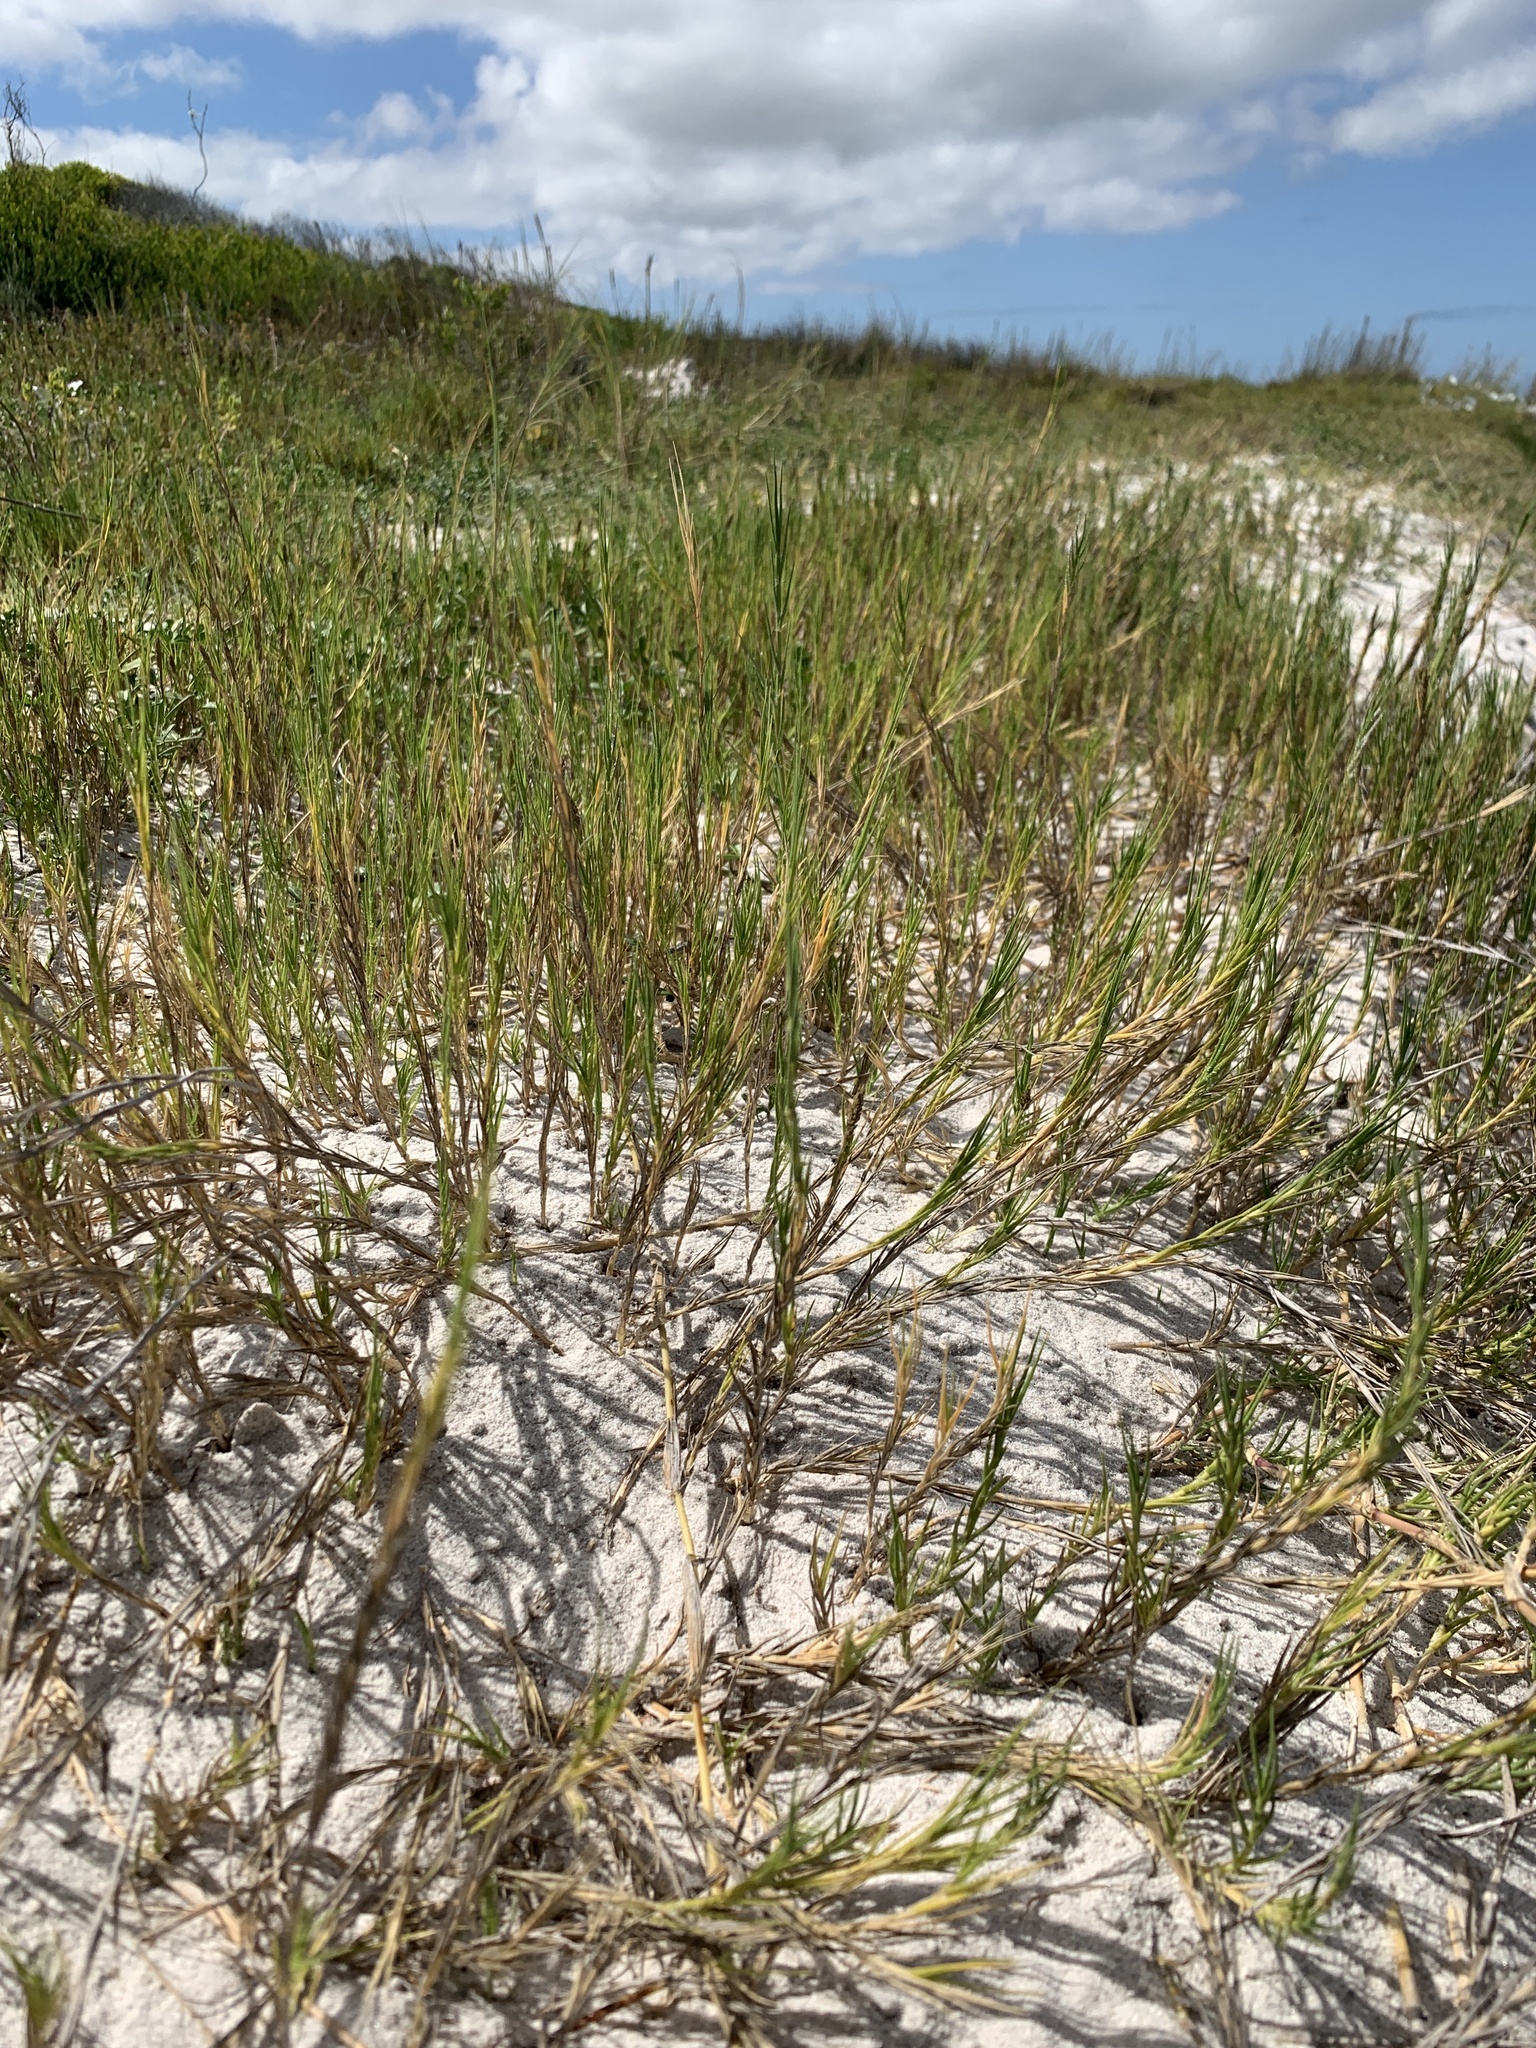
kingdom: Plantae
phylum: Tracheophyta
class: Liliopsida
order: Poales
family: Poaceae
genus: Sporobolus
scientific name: Sporobolus virginicus
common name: Beach dropseed
